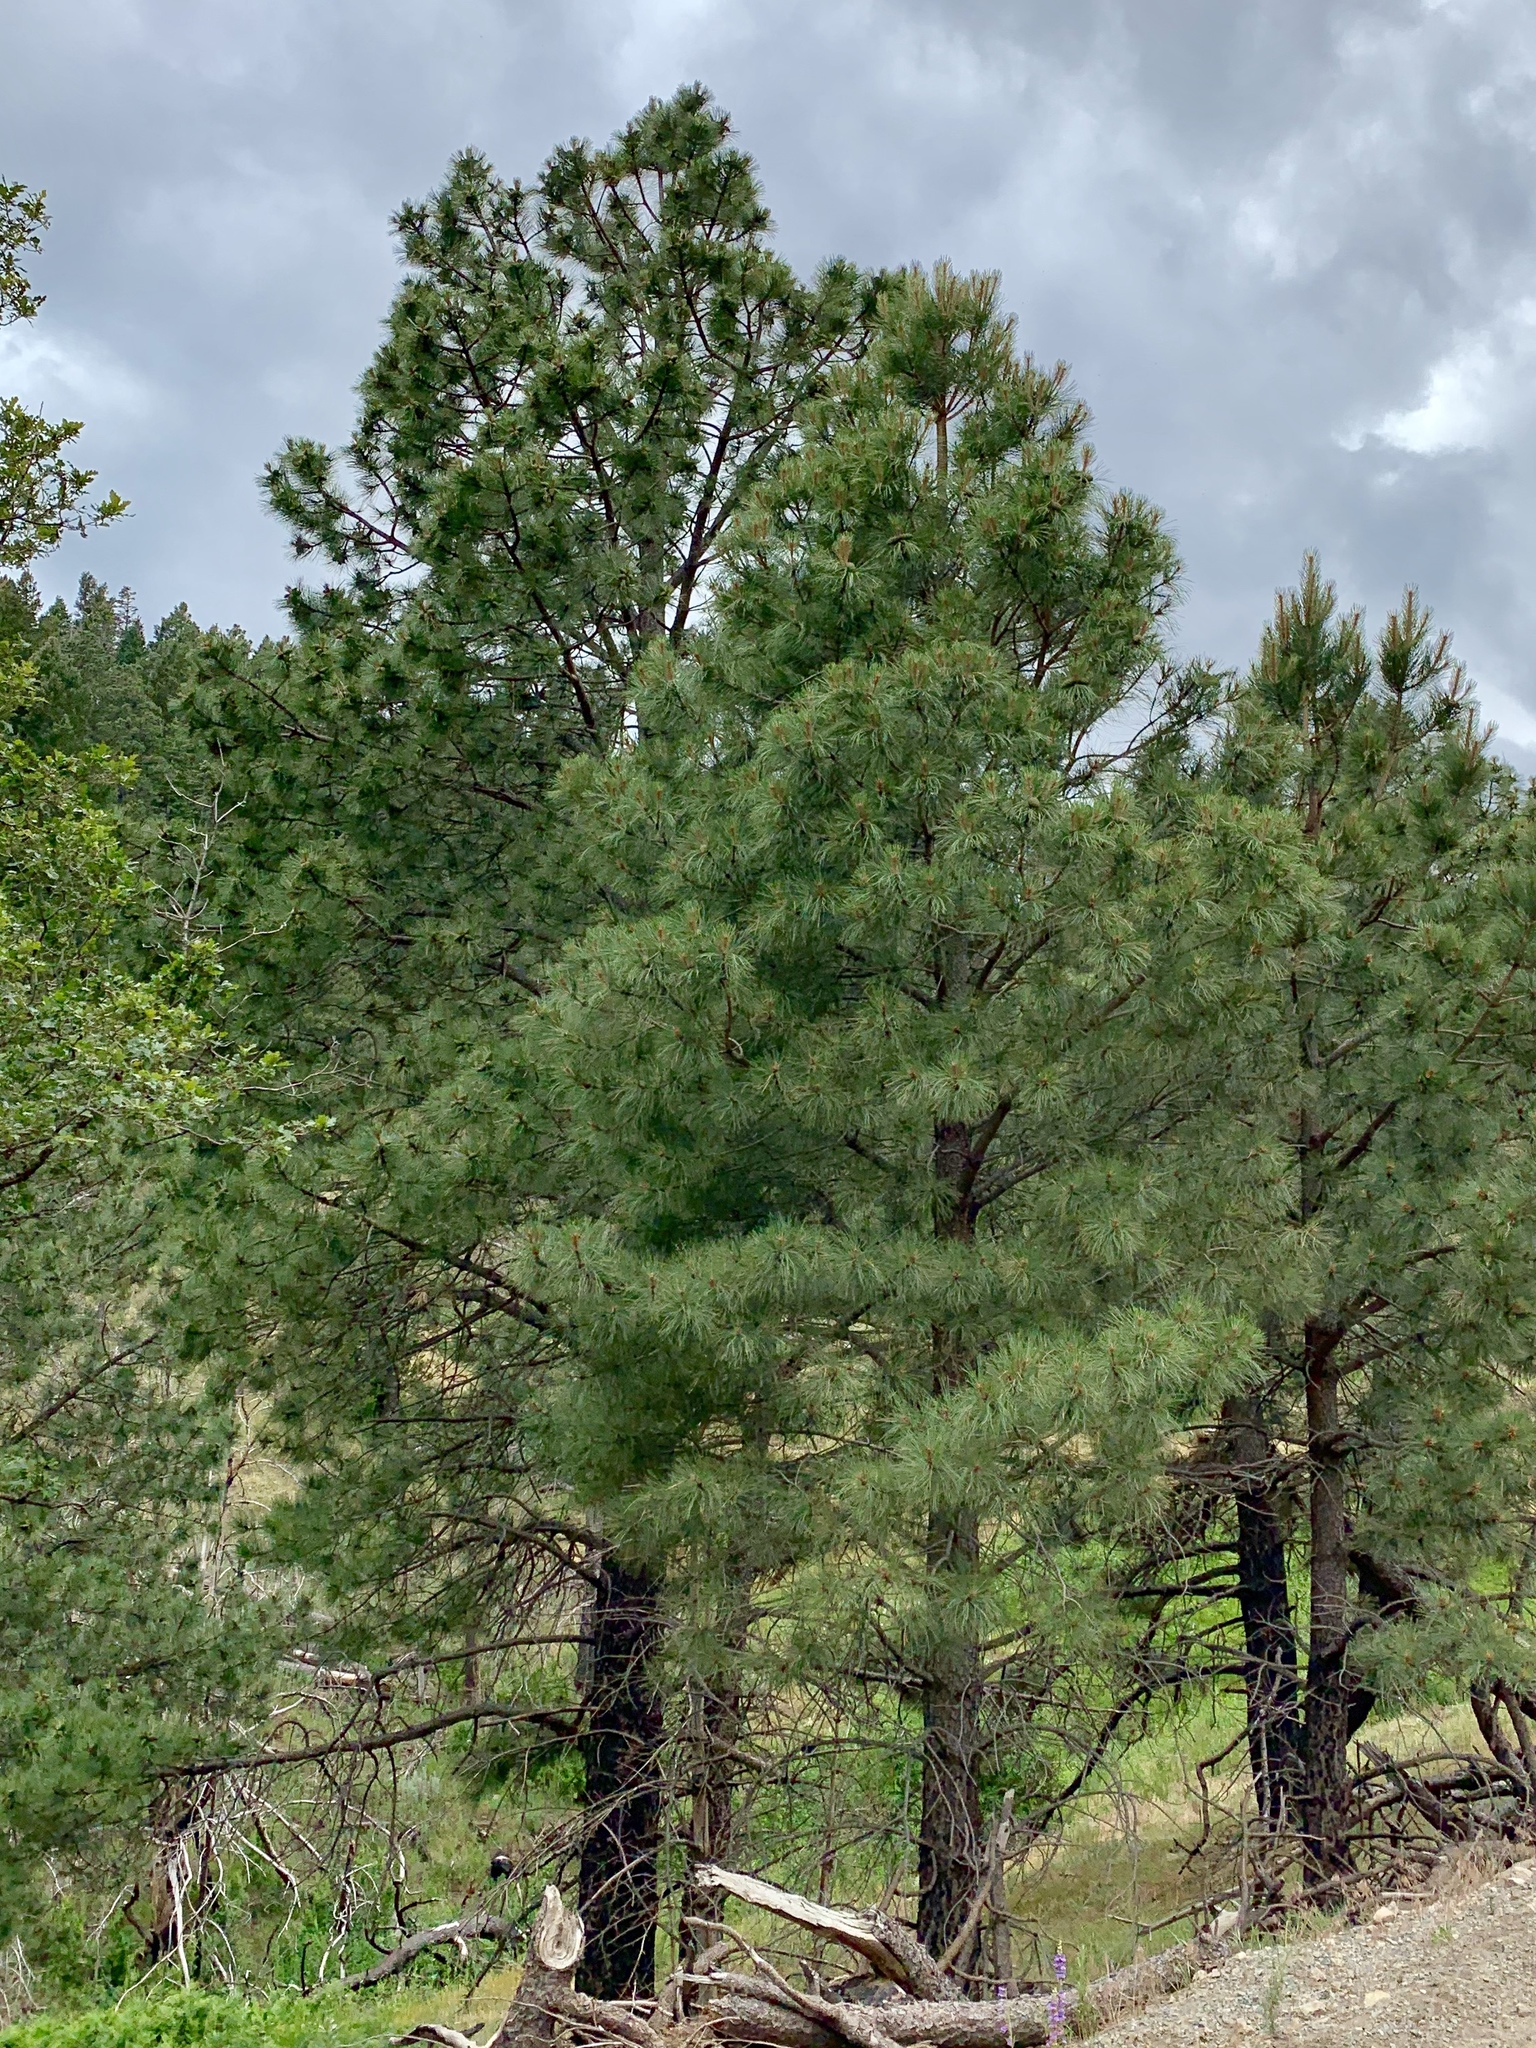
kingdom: Plantae
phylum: Tracheophyta
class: Pinopsida
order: Pinales
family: Pinaceae
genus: Pinus
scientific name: Pinus ponderosa
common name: Western yellow-pine
